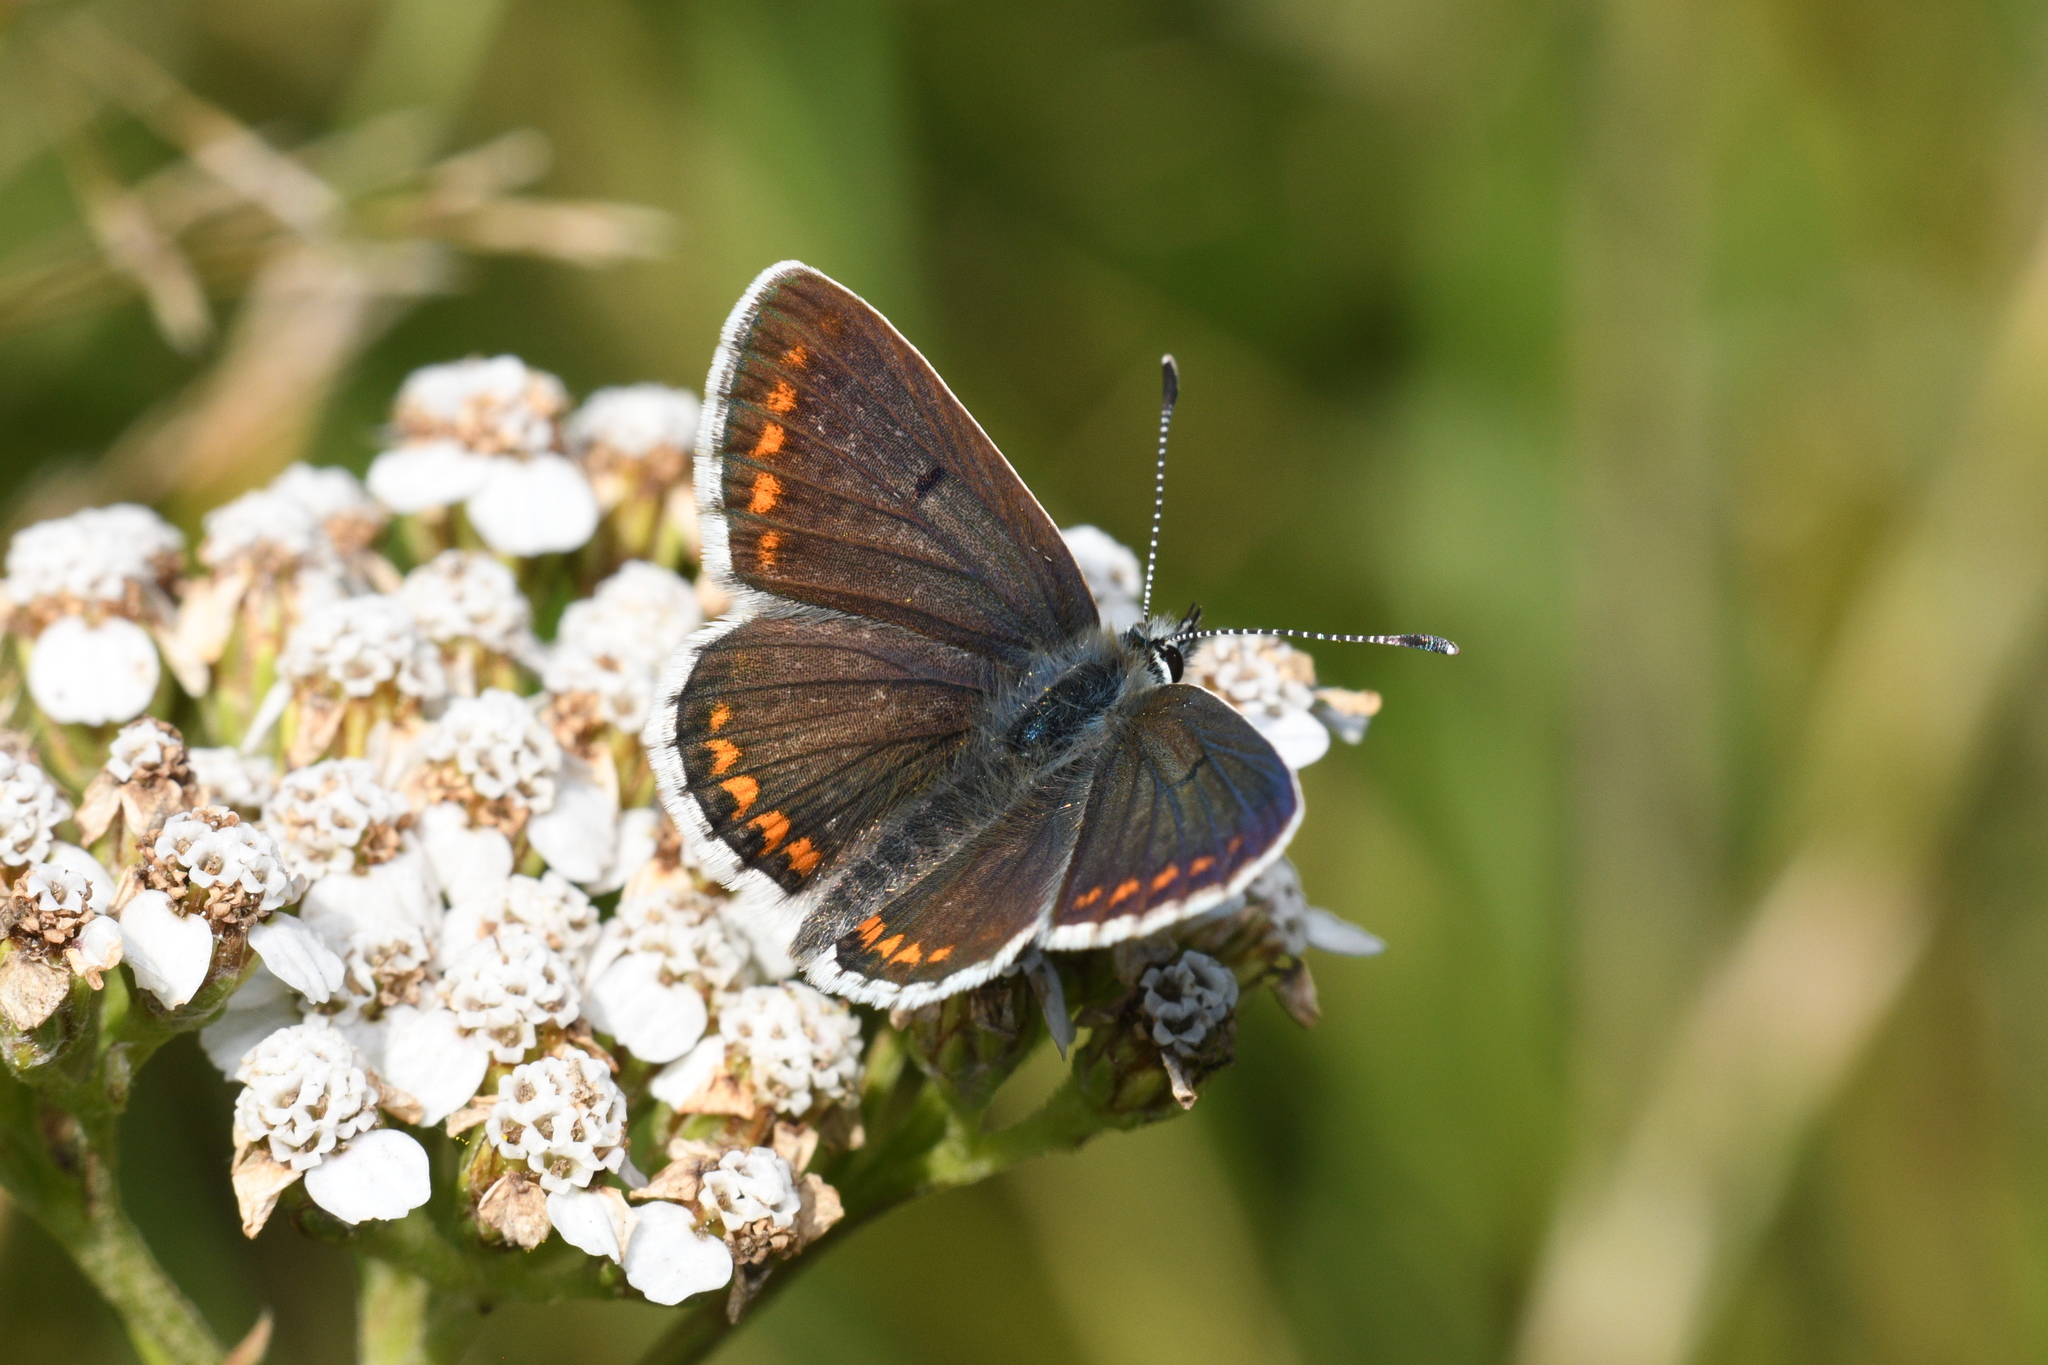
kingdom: Animalia
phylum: Arthropoda
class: Insecta
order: Lepidoptera
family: Lycaenidae
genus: Aricia
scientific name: Aricia agestis
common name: Brown argus
